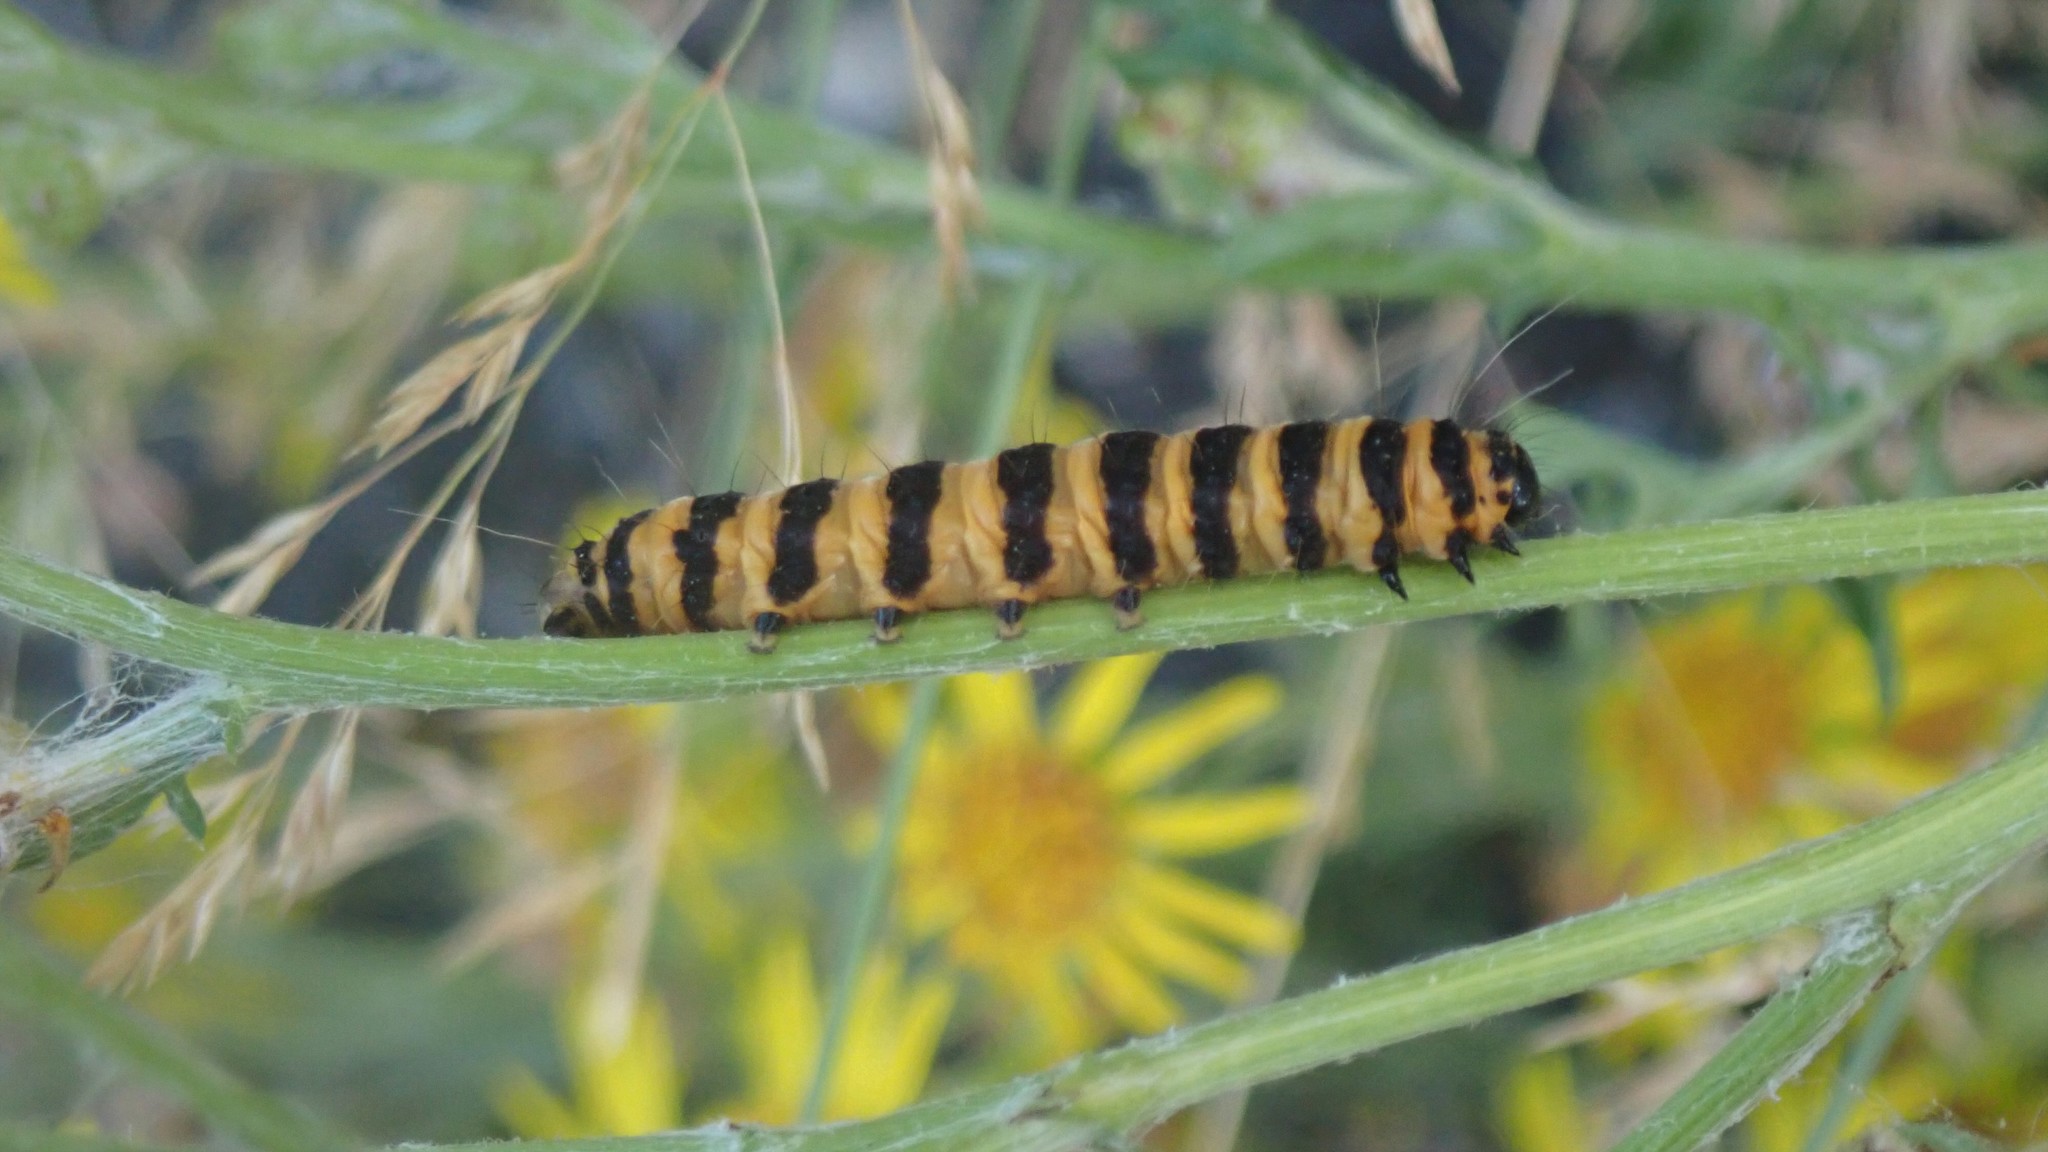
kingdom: Animalia
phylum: Arthropoda
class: Insecta
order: Lepidoptera
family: Erebidae
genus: Tyria
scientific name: Tyria jacobaeae
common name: Cinnabar
